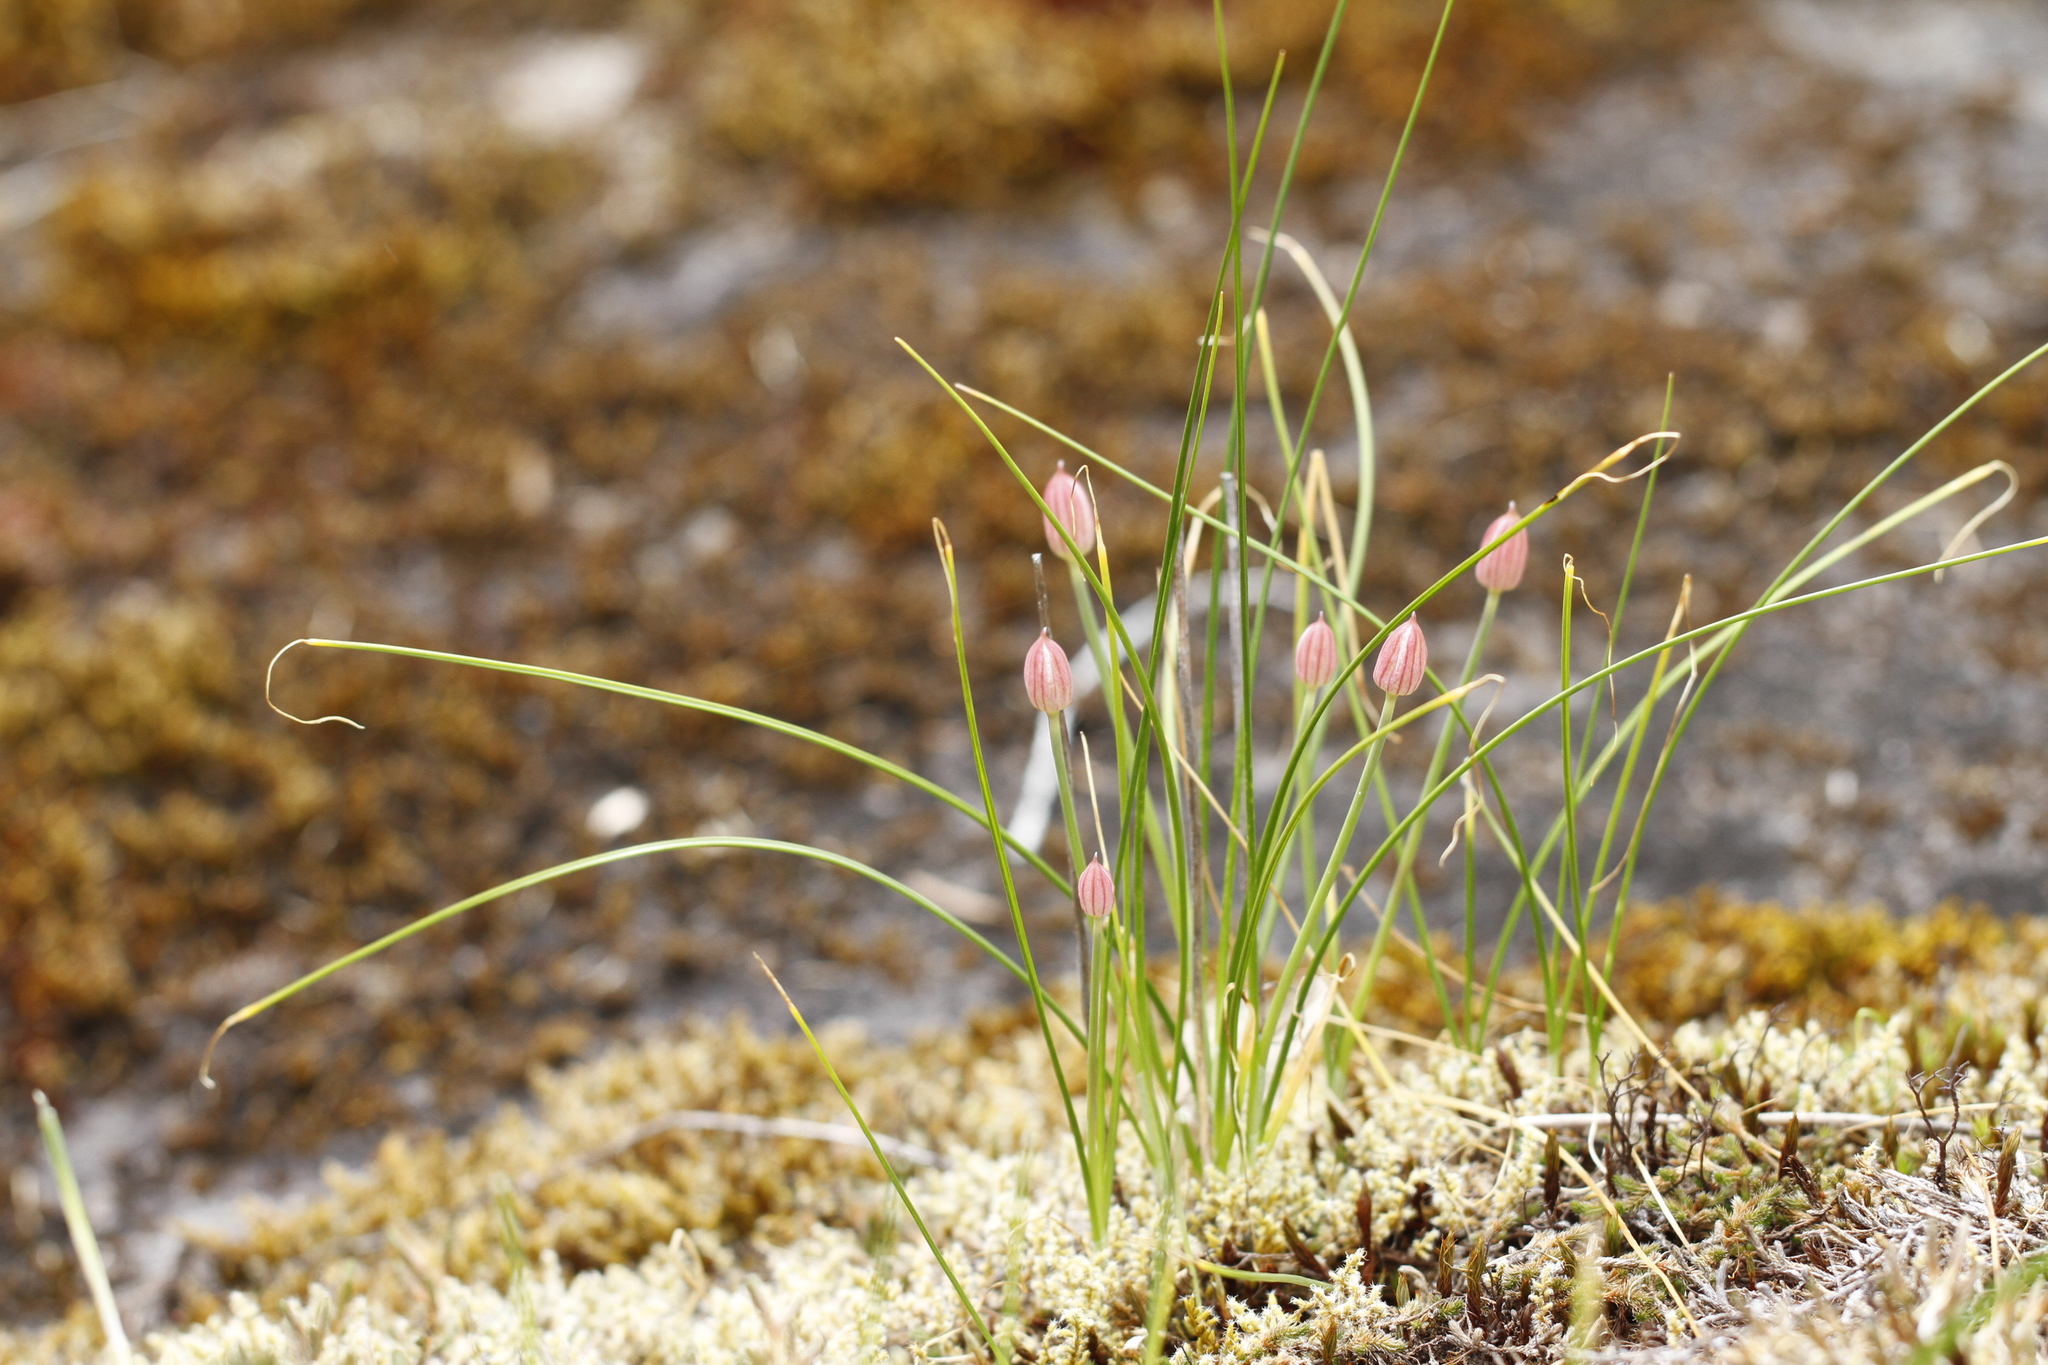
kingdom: Plantae
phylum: Tracheophyta
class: Liliopsida
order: Asparagales
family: Amaryllidaceae
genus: Allium
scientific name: Allium amplectens
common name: Narrow-leaved onion
